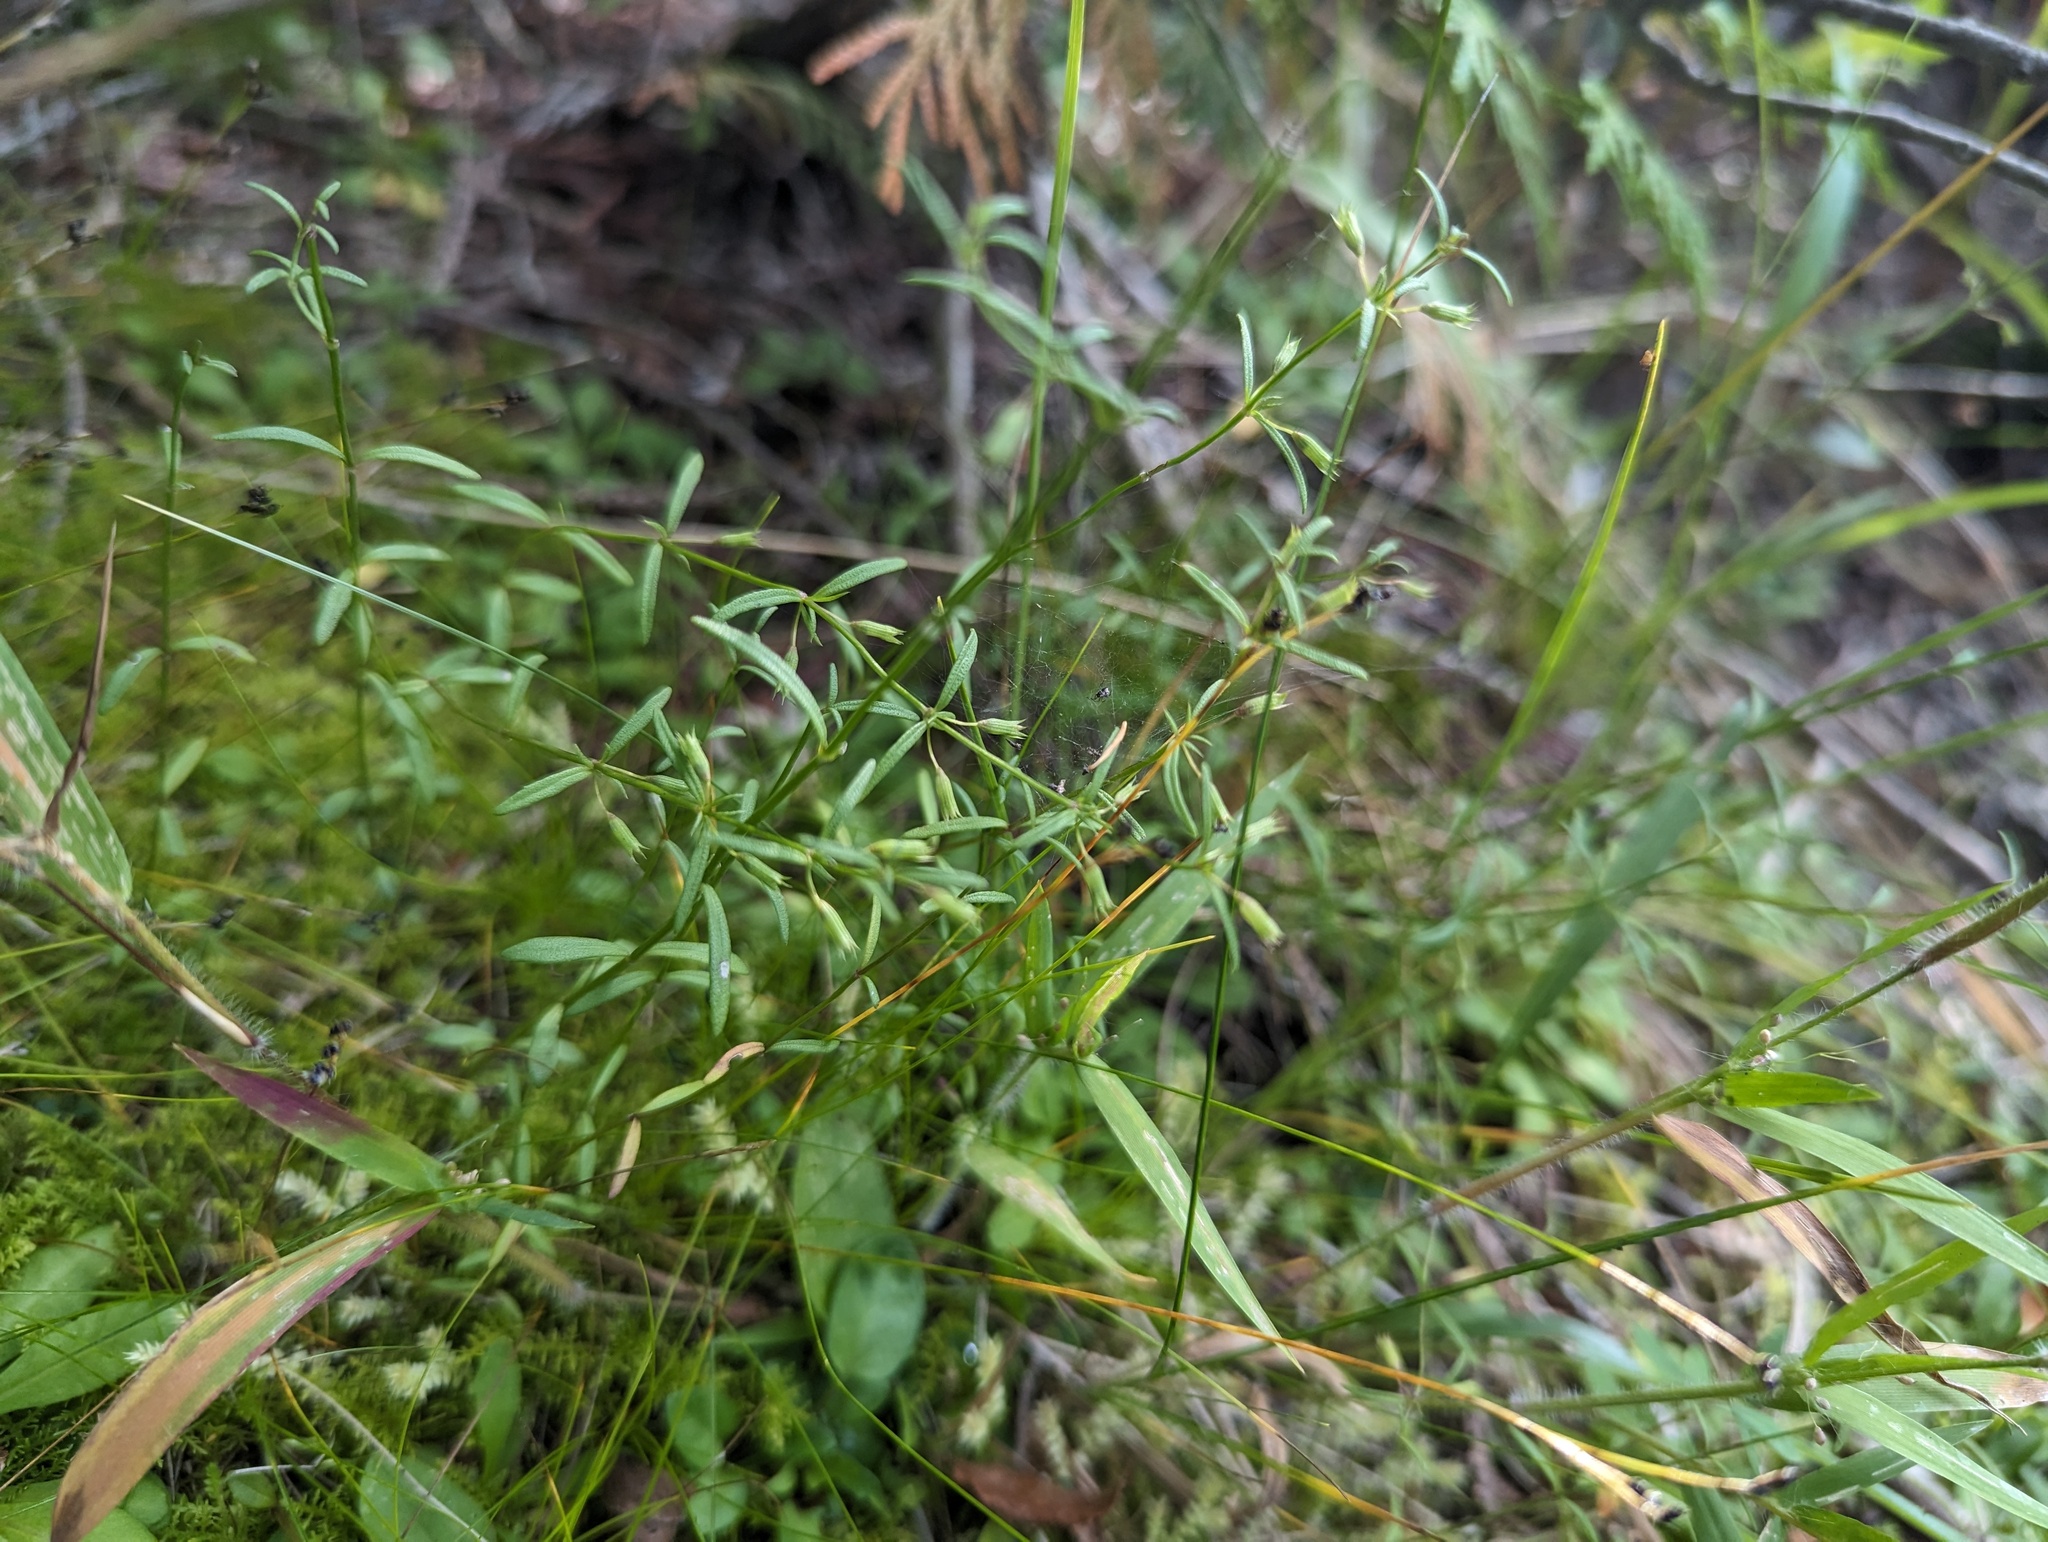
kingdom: Plantae
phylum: Tracheophyta
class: Magnoliopsida
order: Lamiales
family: Lamiaceae
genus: Clinopodium
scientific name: Clinopodium arkansanum
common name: Limestone calamint
